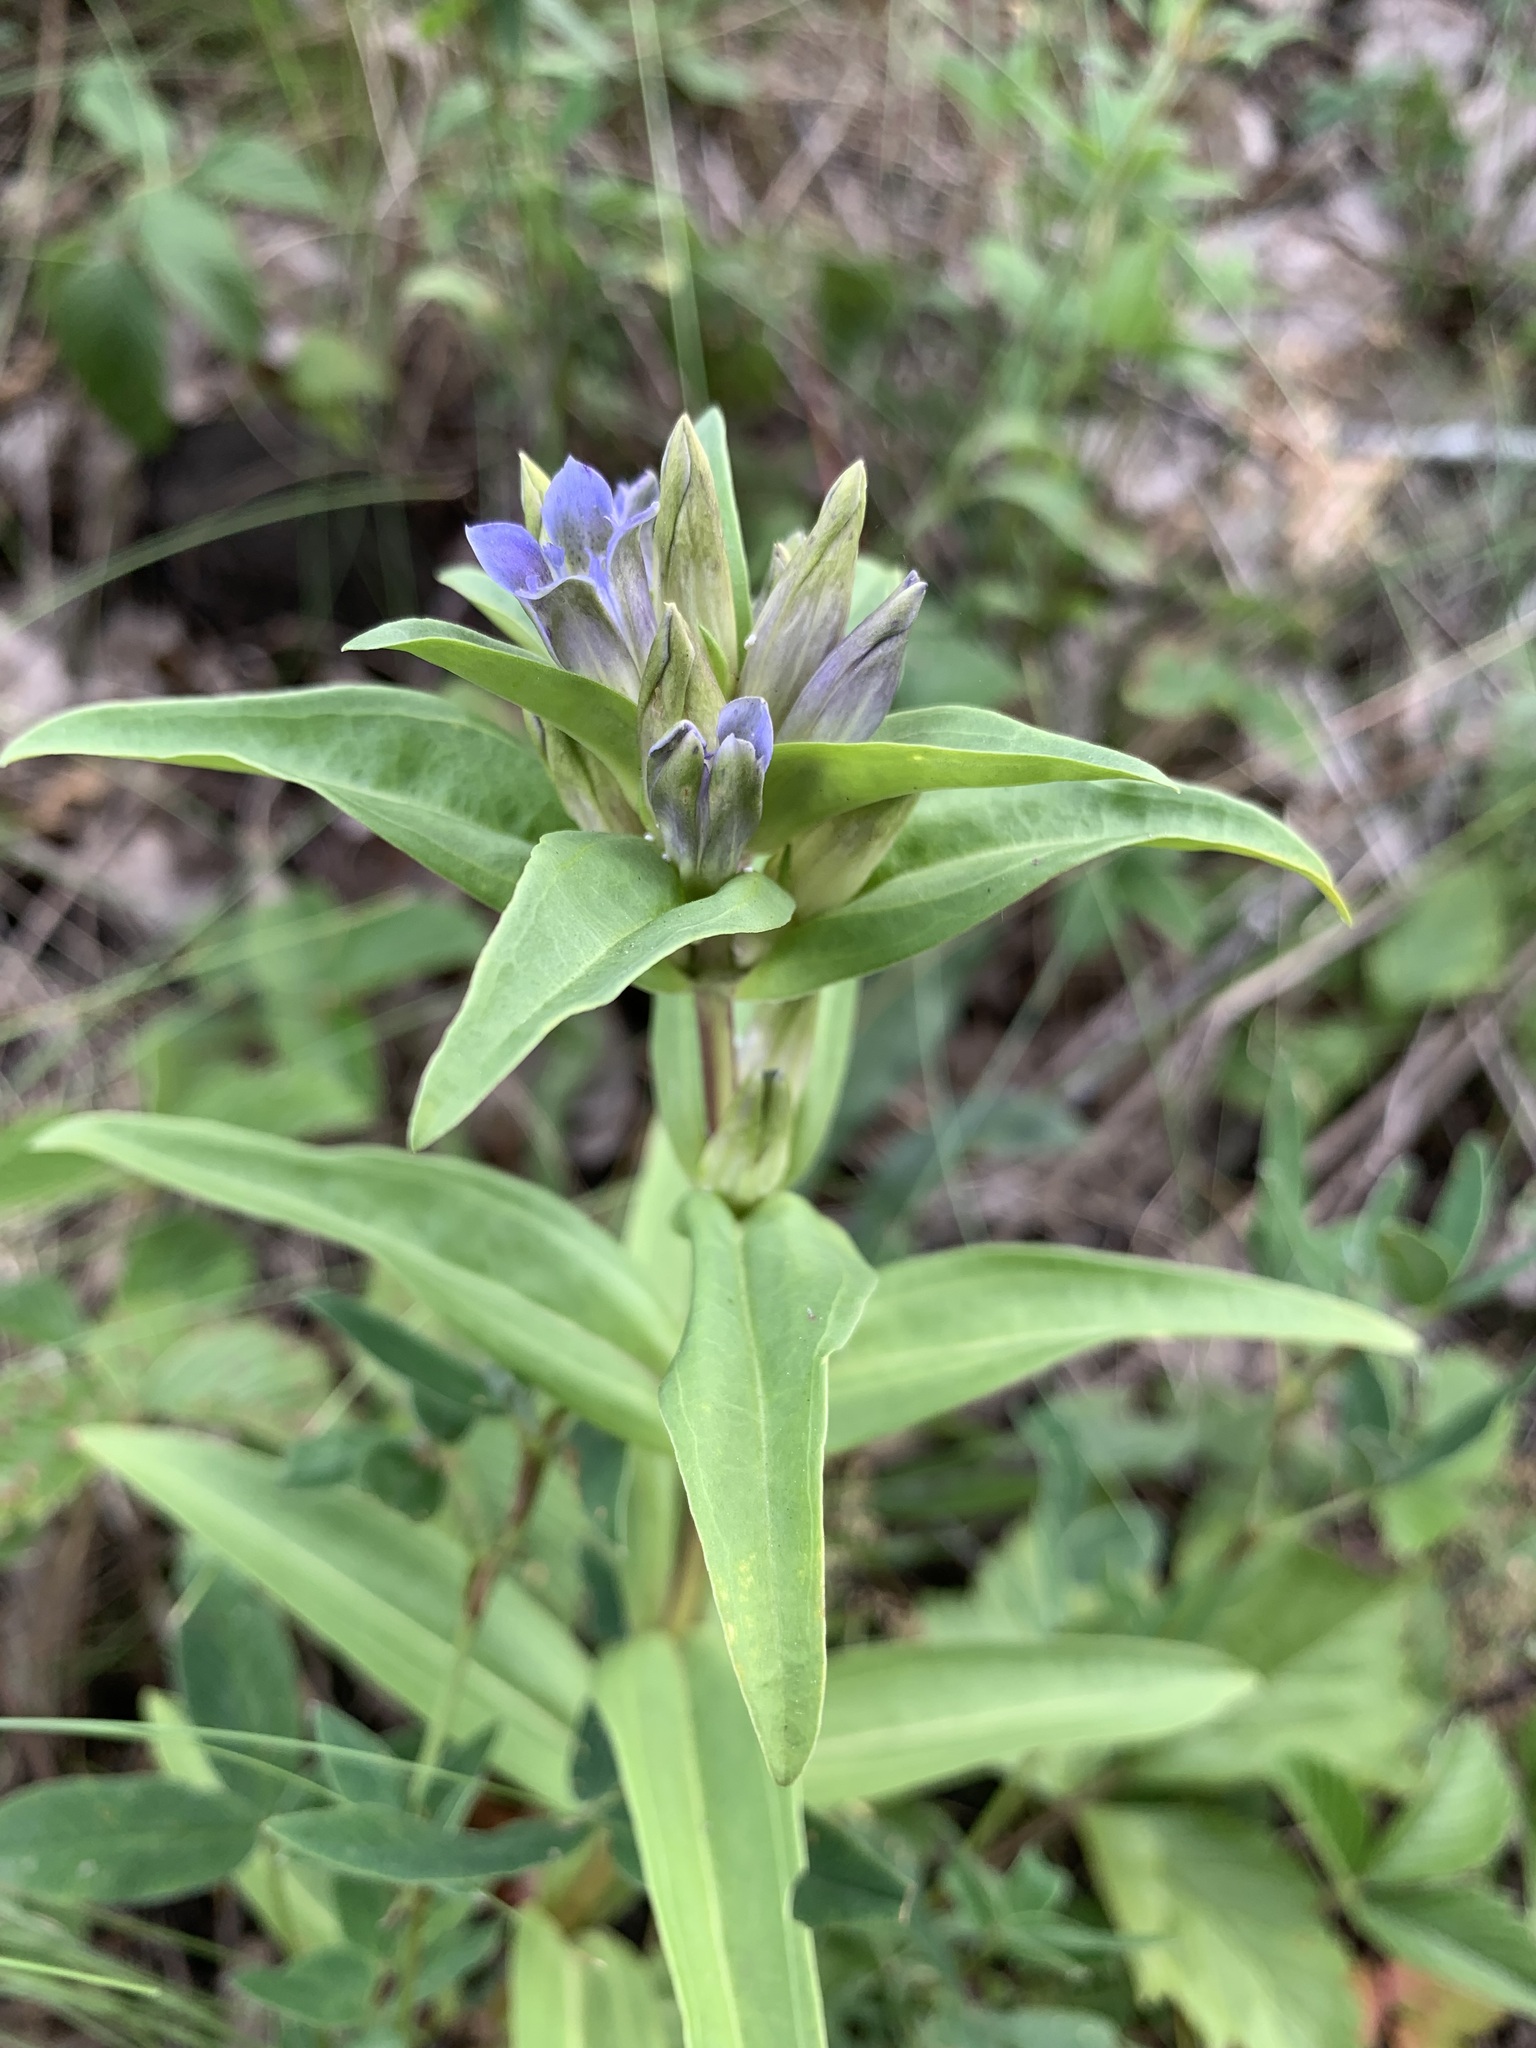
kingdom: Plantae
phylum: Tracheophyta
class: Magnoliopsida
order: Gentianales
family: Gentianaceae
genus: Gentiana
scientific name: Gentiana cruciata
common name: Cross gentian
